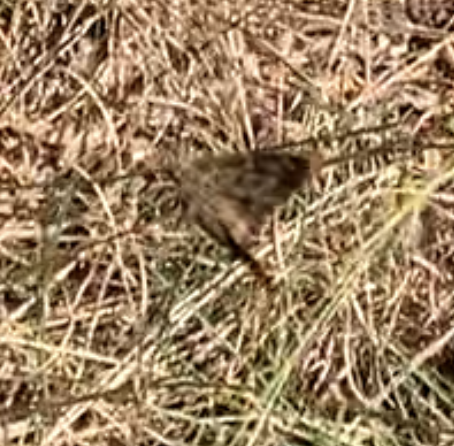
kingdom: Animalia
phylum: Arthropoda
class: Insecta
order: Lepidoptera
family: Hesperiidae
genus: Thorybes
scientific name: Thorybes
